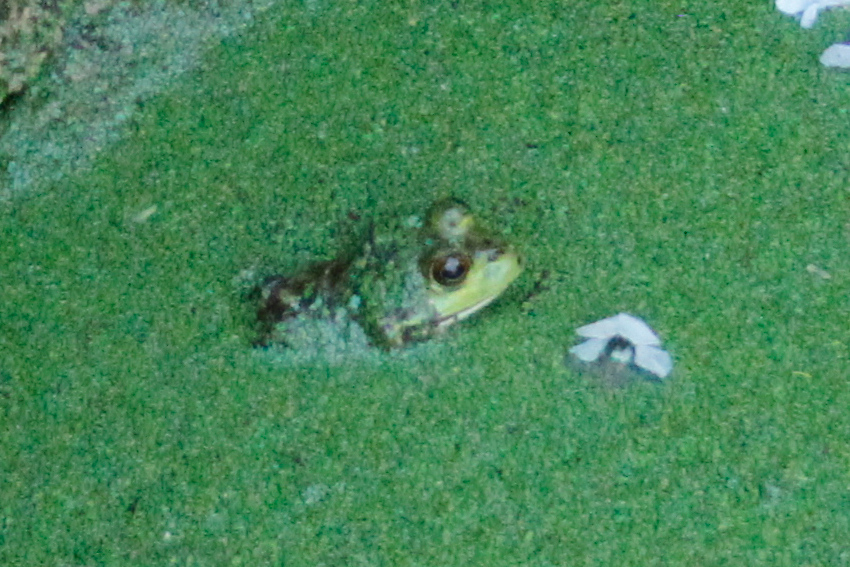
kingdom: Animalia
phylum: Chordata
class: Amphibia
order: Anura
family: Ranidae
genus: Lithobates
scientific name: Lithobates catesbeianus
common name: American bullfrog
